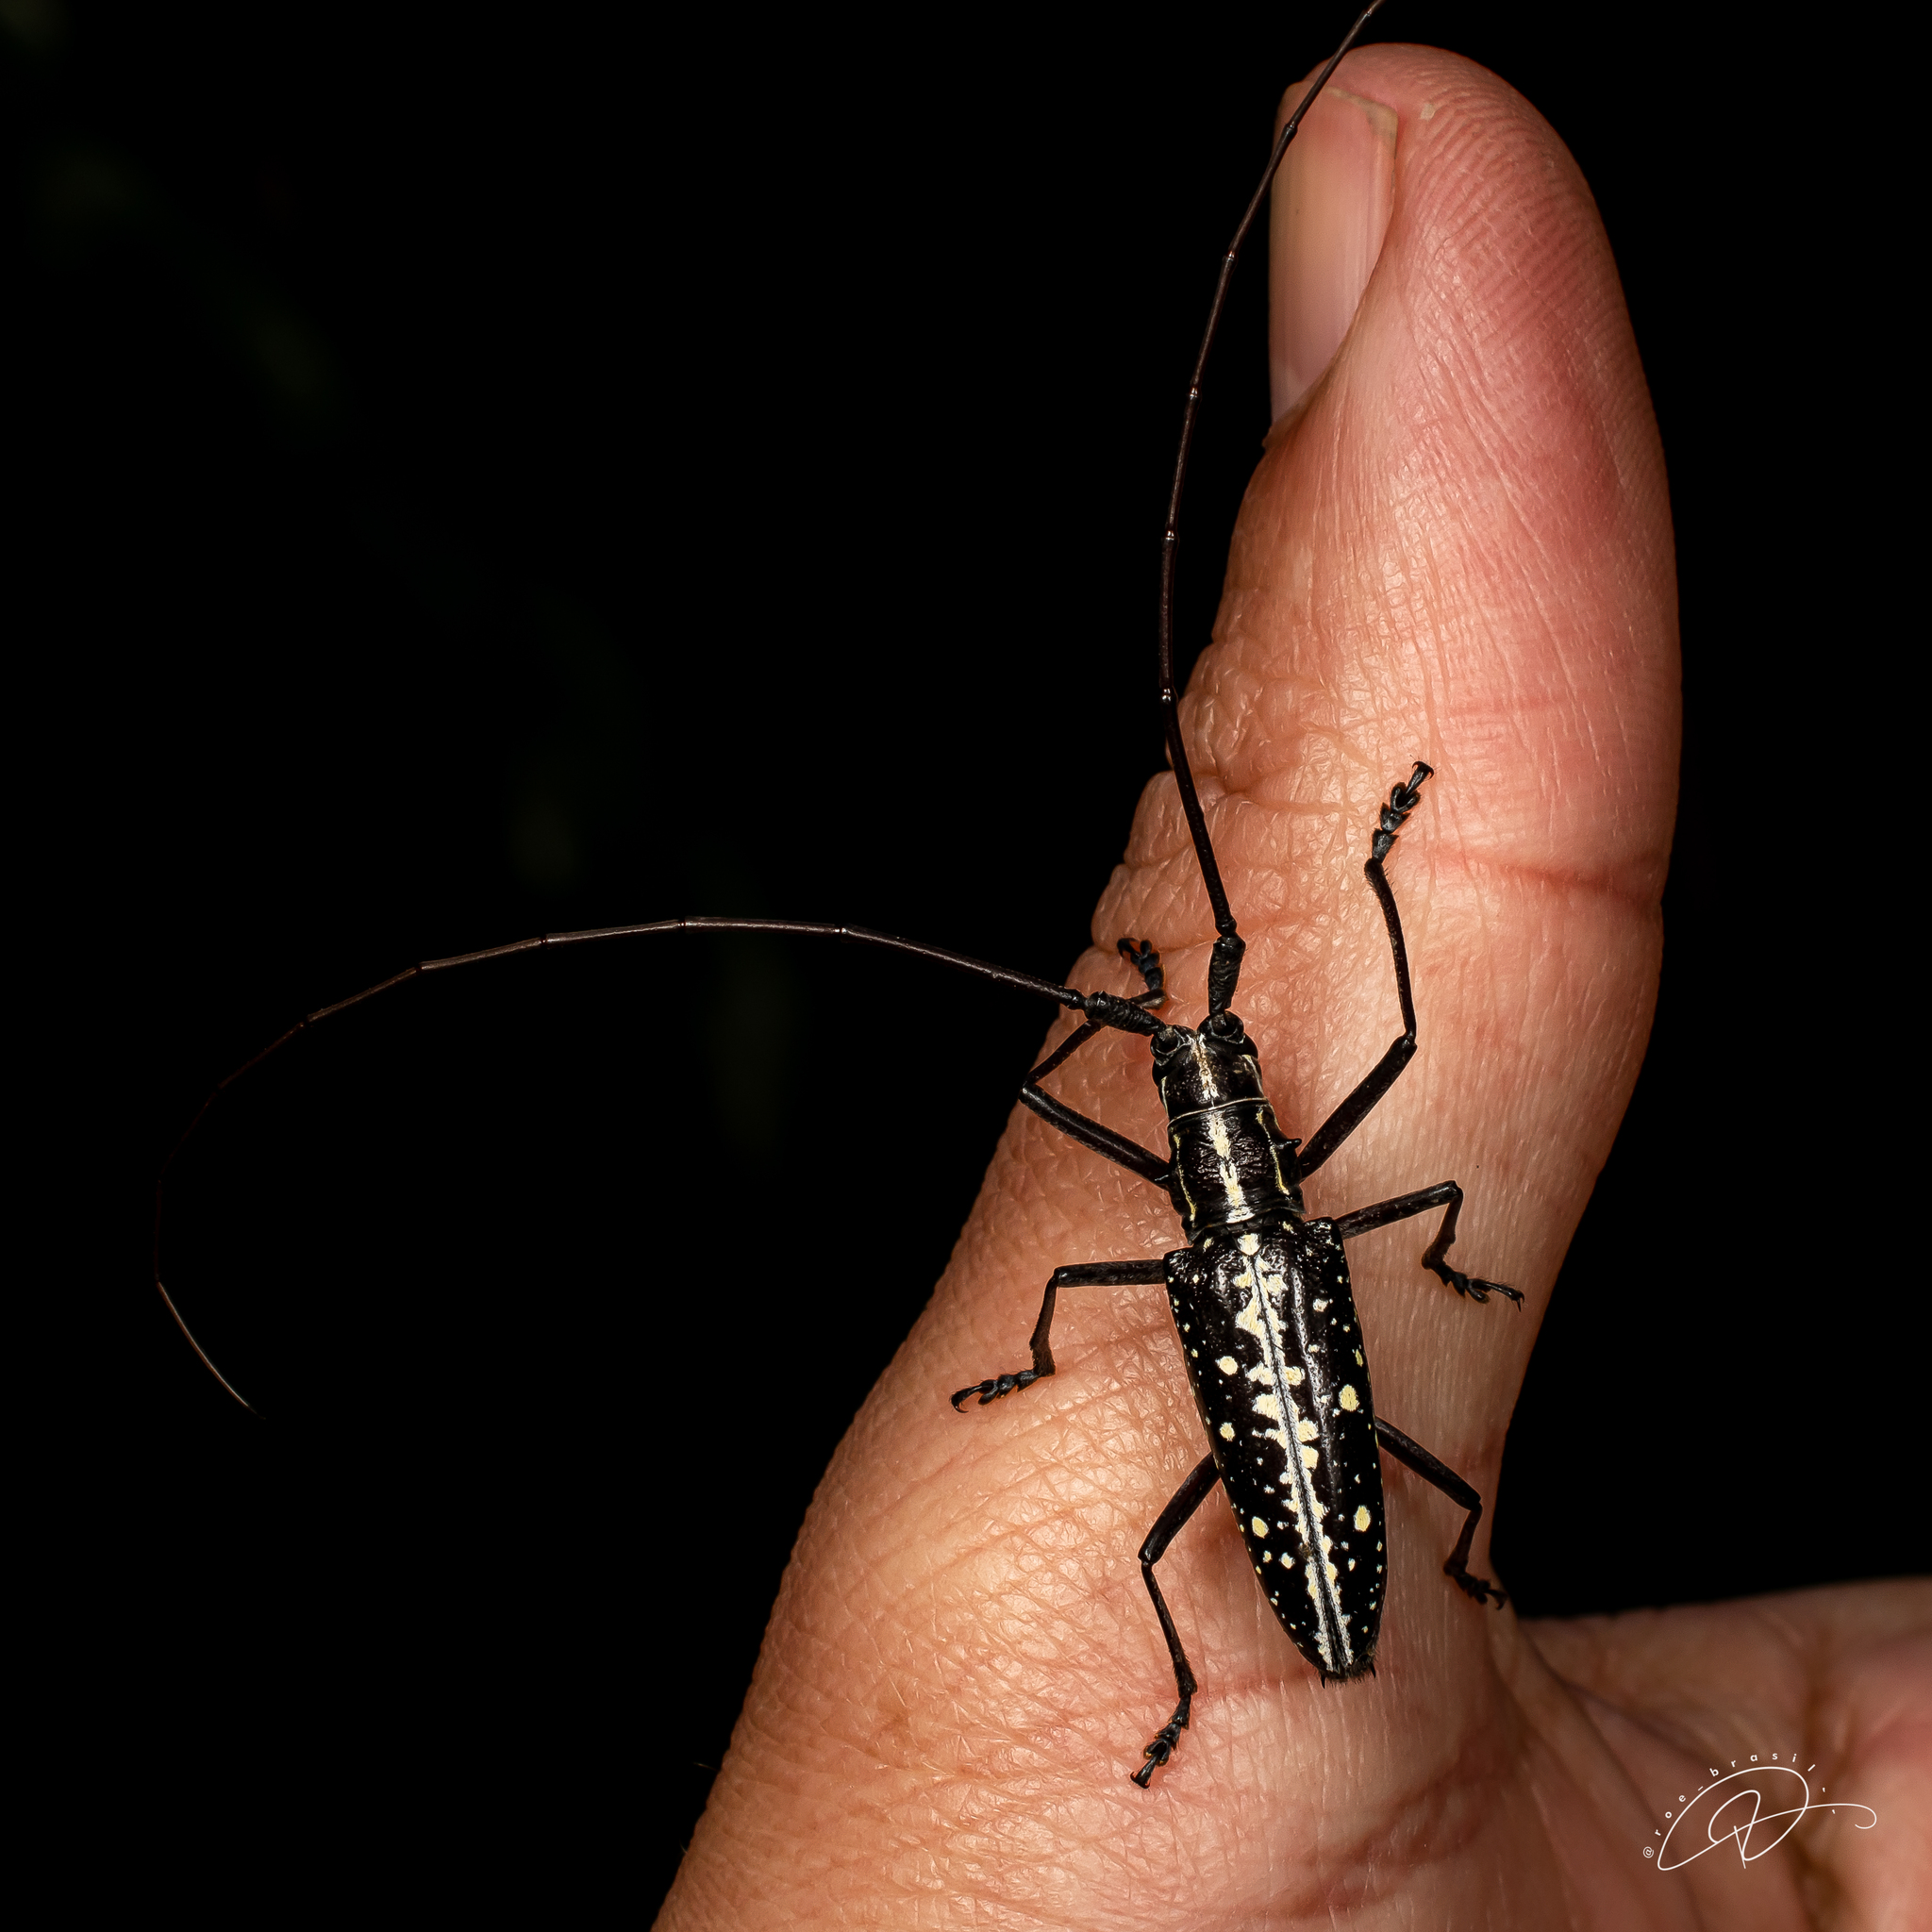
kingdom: Animalia
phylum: Arthropoda
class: Insecta
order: Coleoptera
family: Cerambycidae
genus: Taeniotes
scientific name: Taeniotes amazonum
